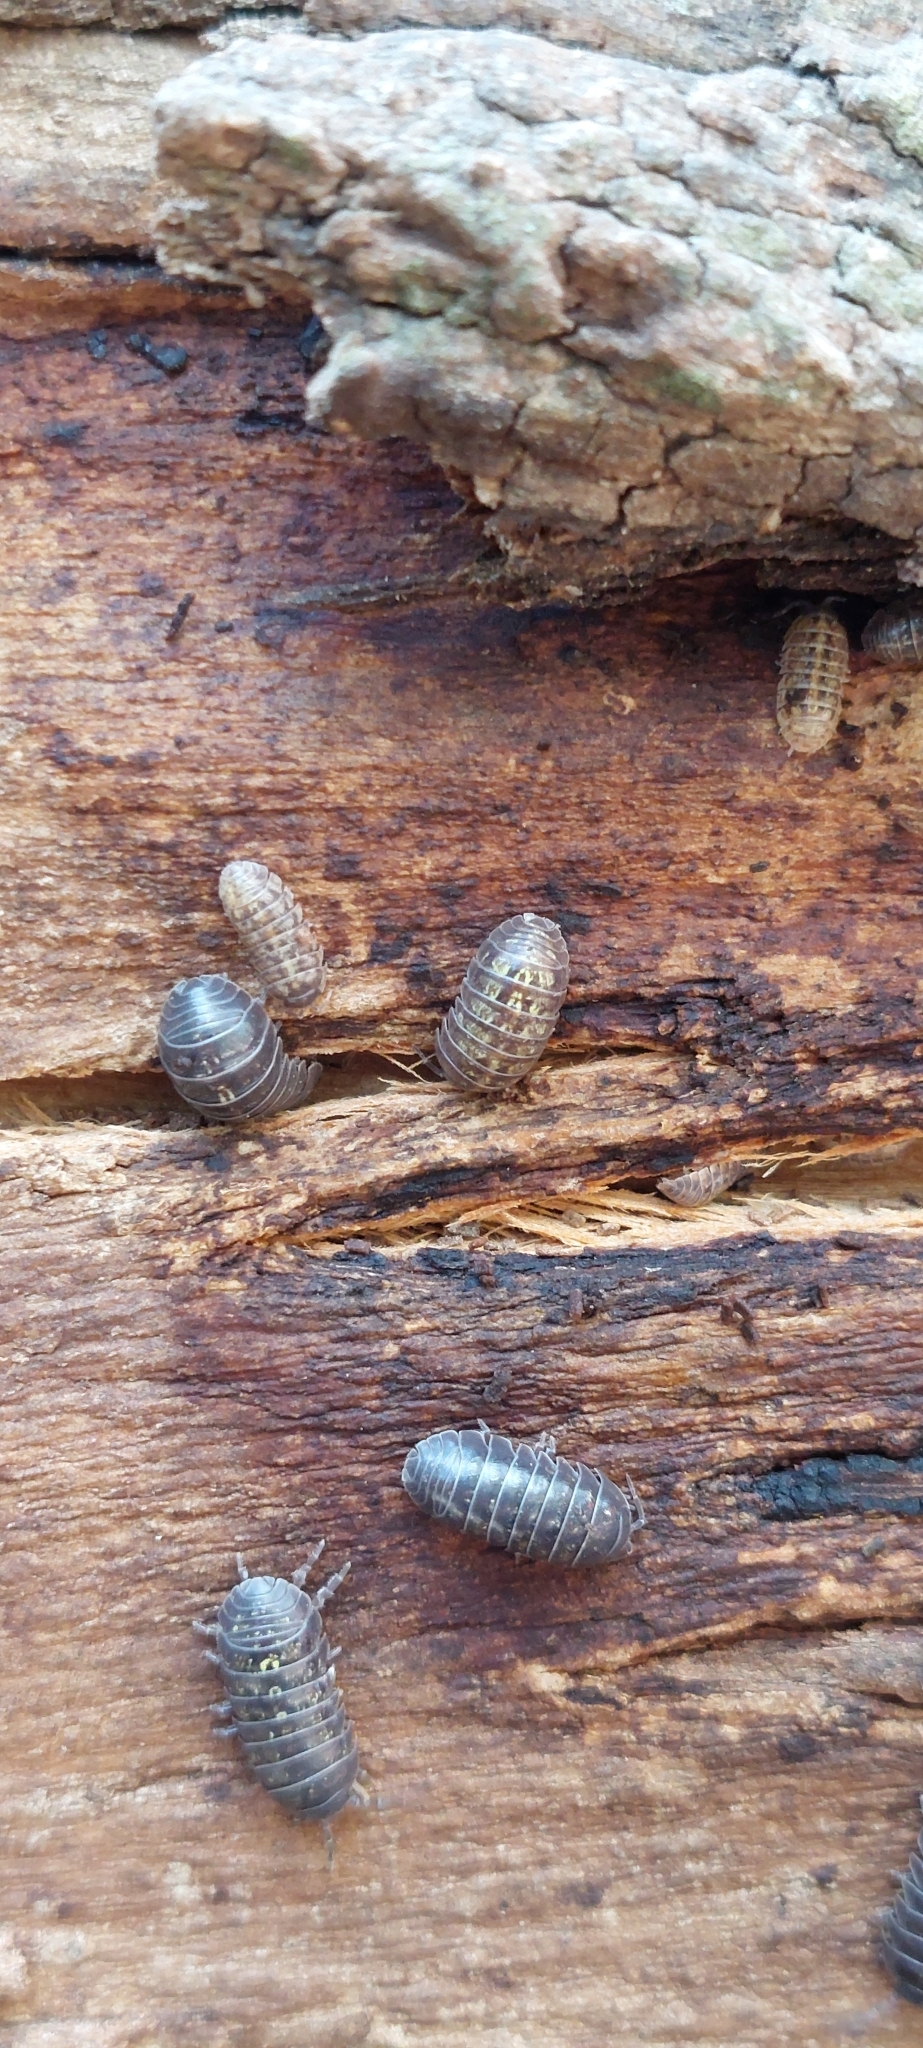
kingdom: Animalia
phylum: Arthropoda
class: Malacostraca
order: Isopoda
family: Armadillidiidae
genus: Armadillidium
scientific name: Armadillidium vulgare
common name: Common pill woodlouse
